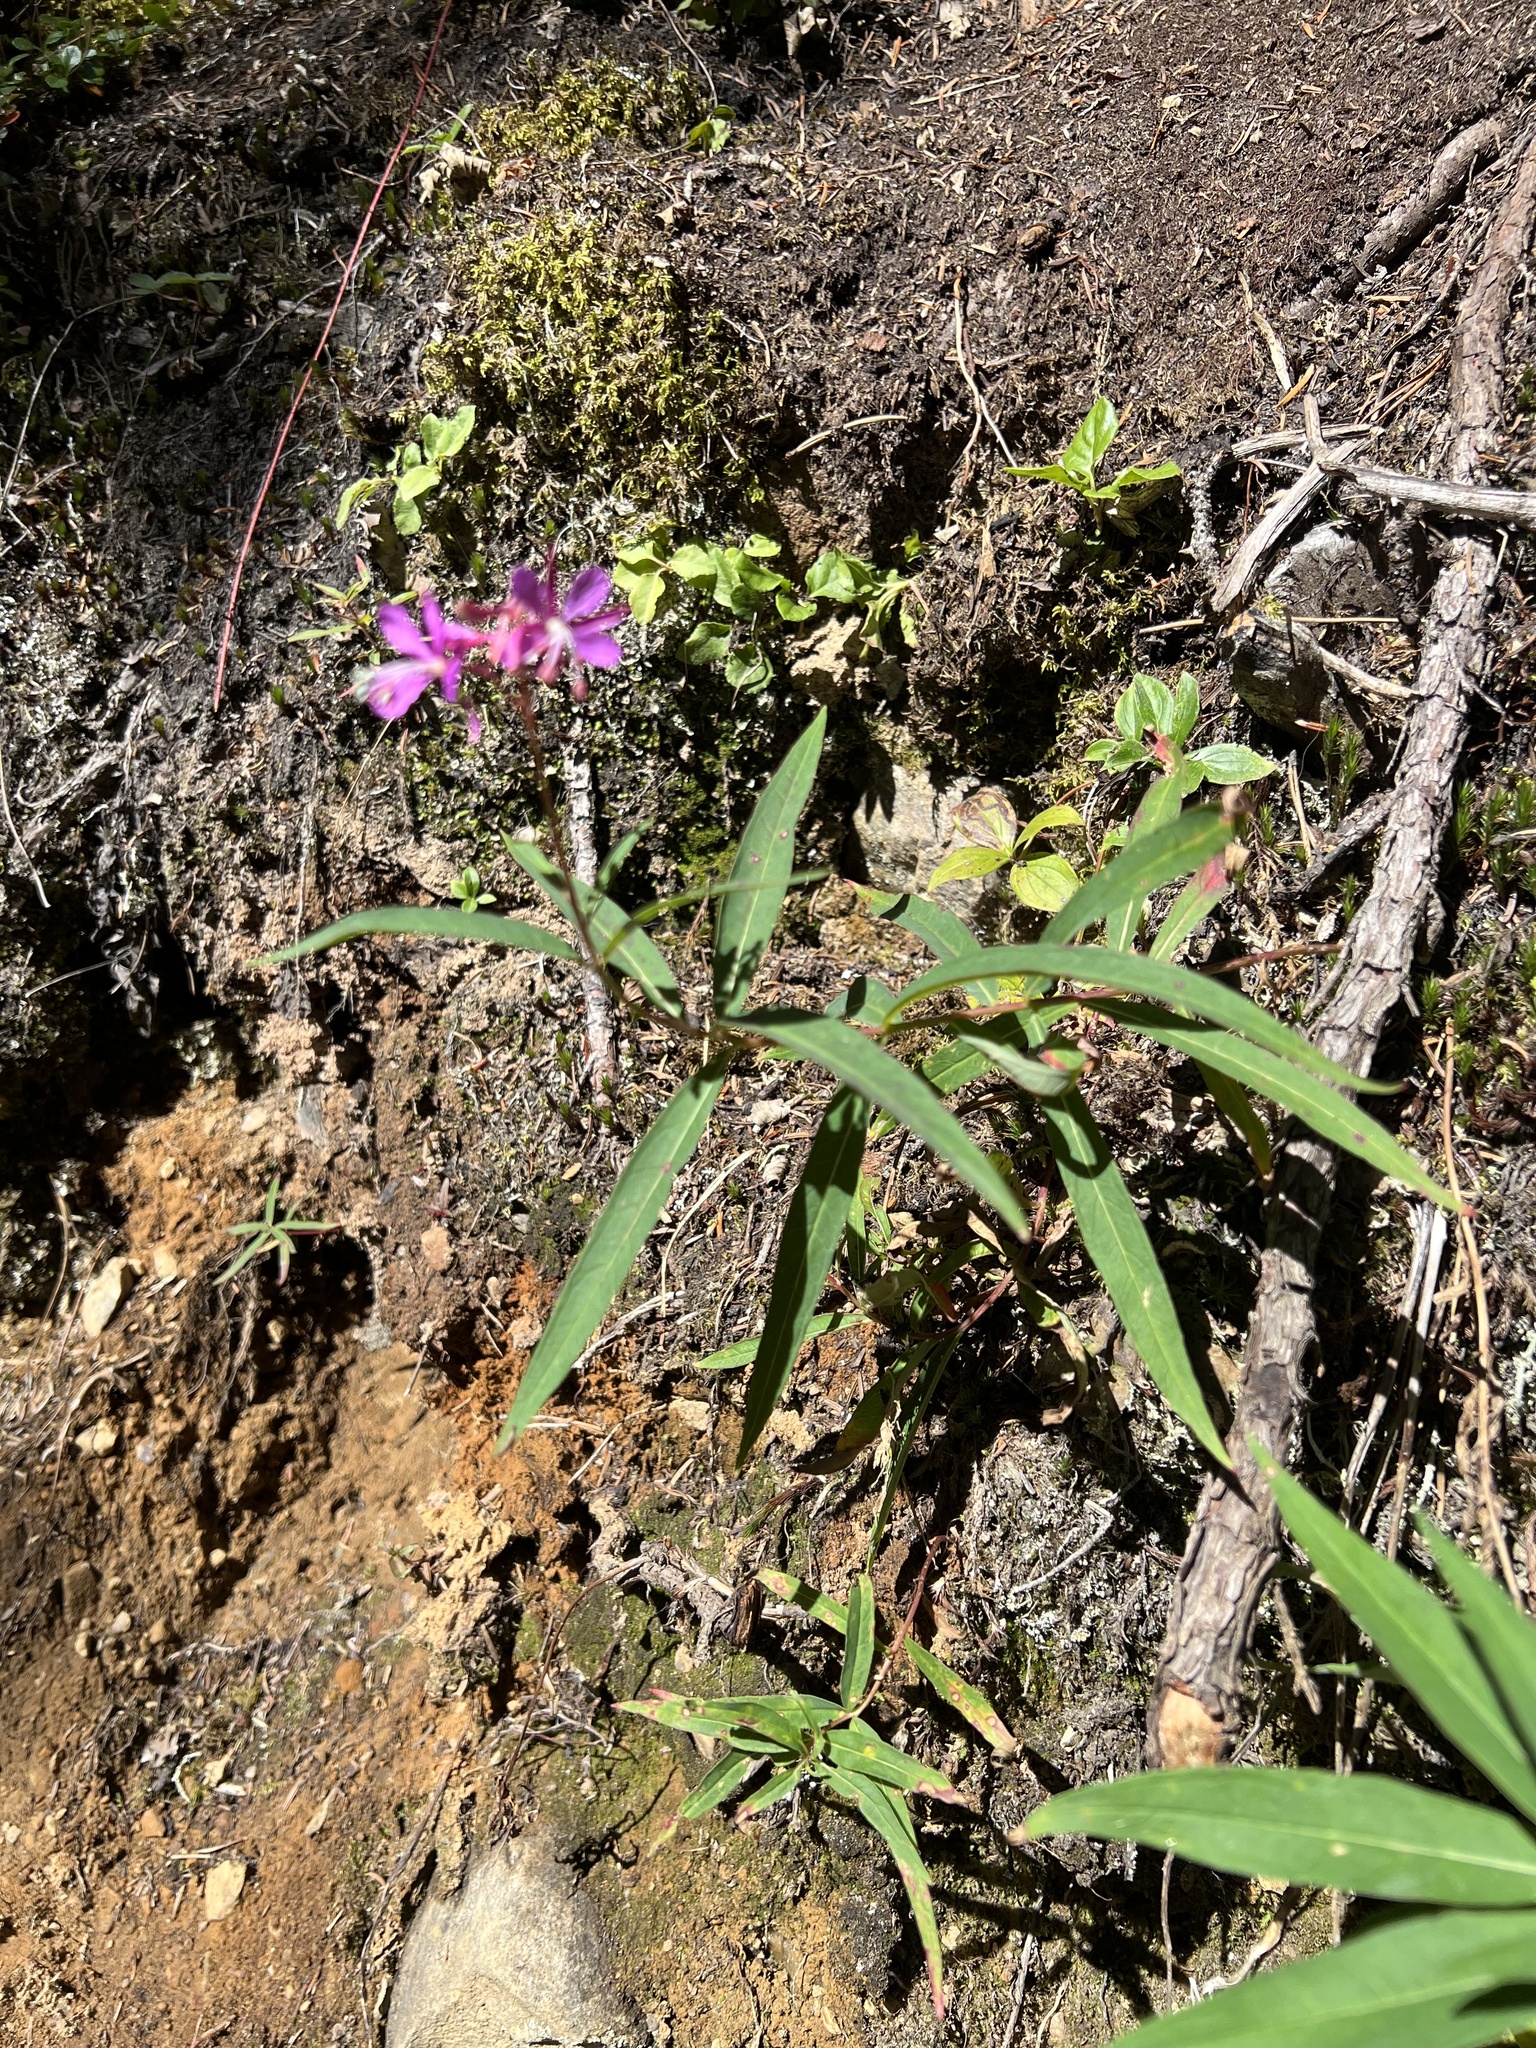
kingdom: Plantae
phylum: Tracheophyta
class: Magnoliopsida
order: Myrtales
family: Onagraceae
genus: Chamaenerion
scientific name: Chamaenerion angustifolium
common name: Fireweed
